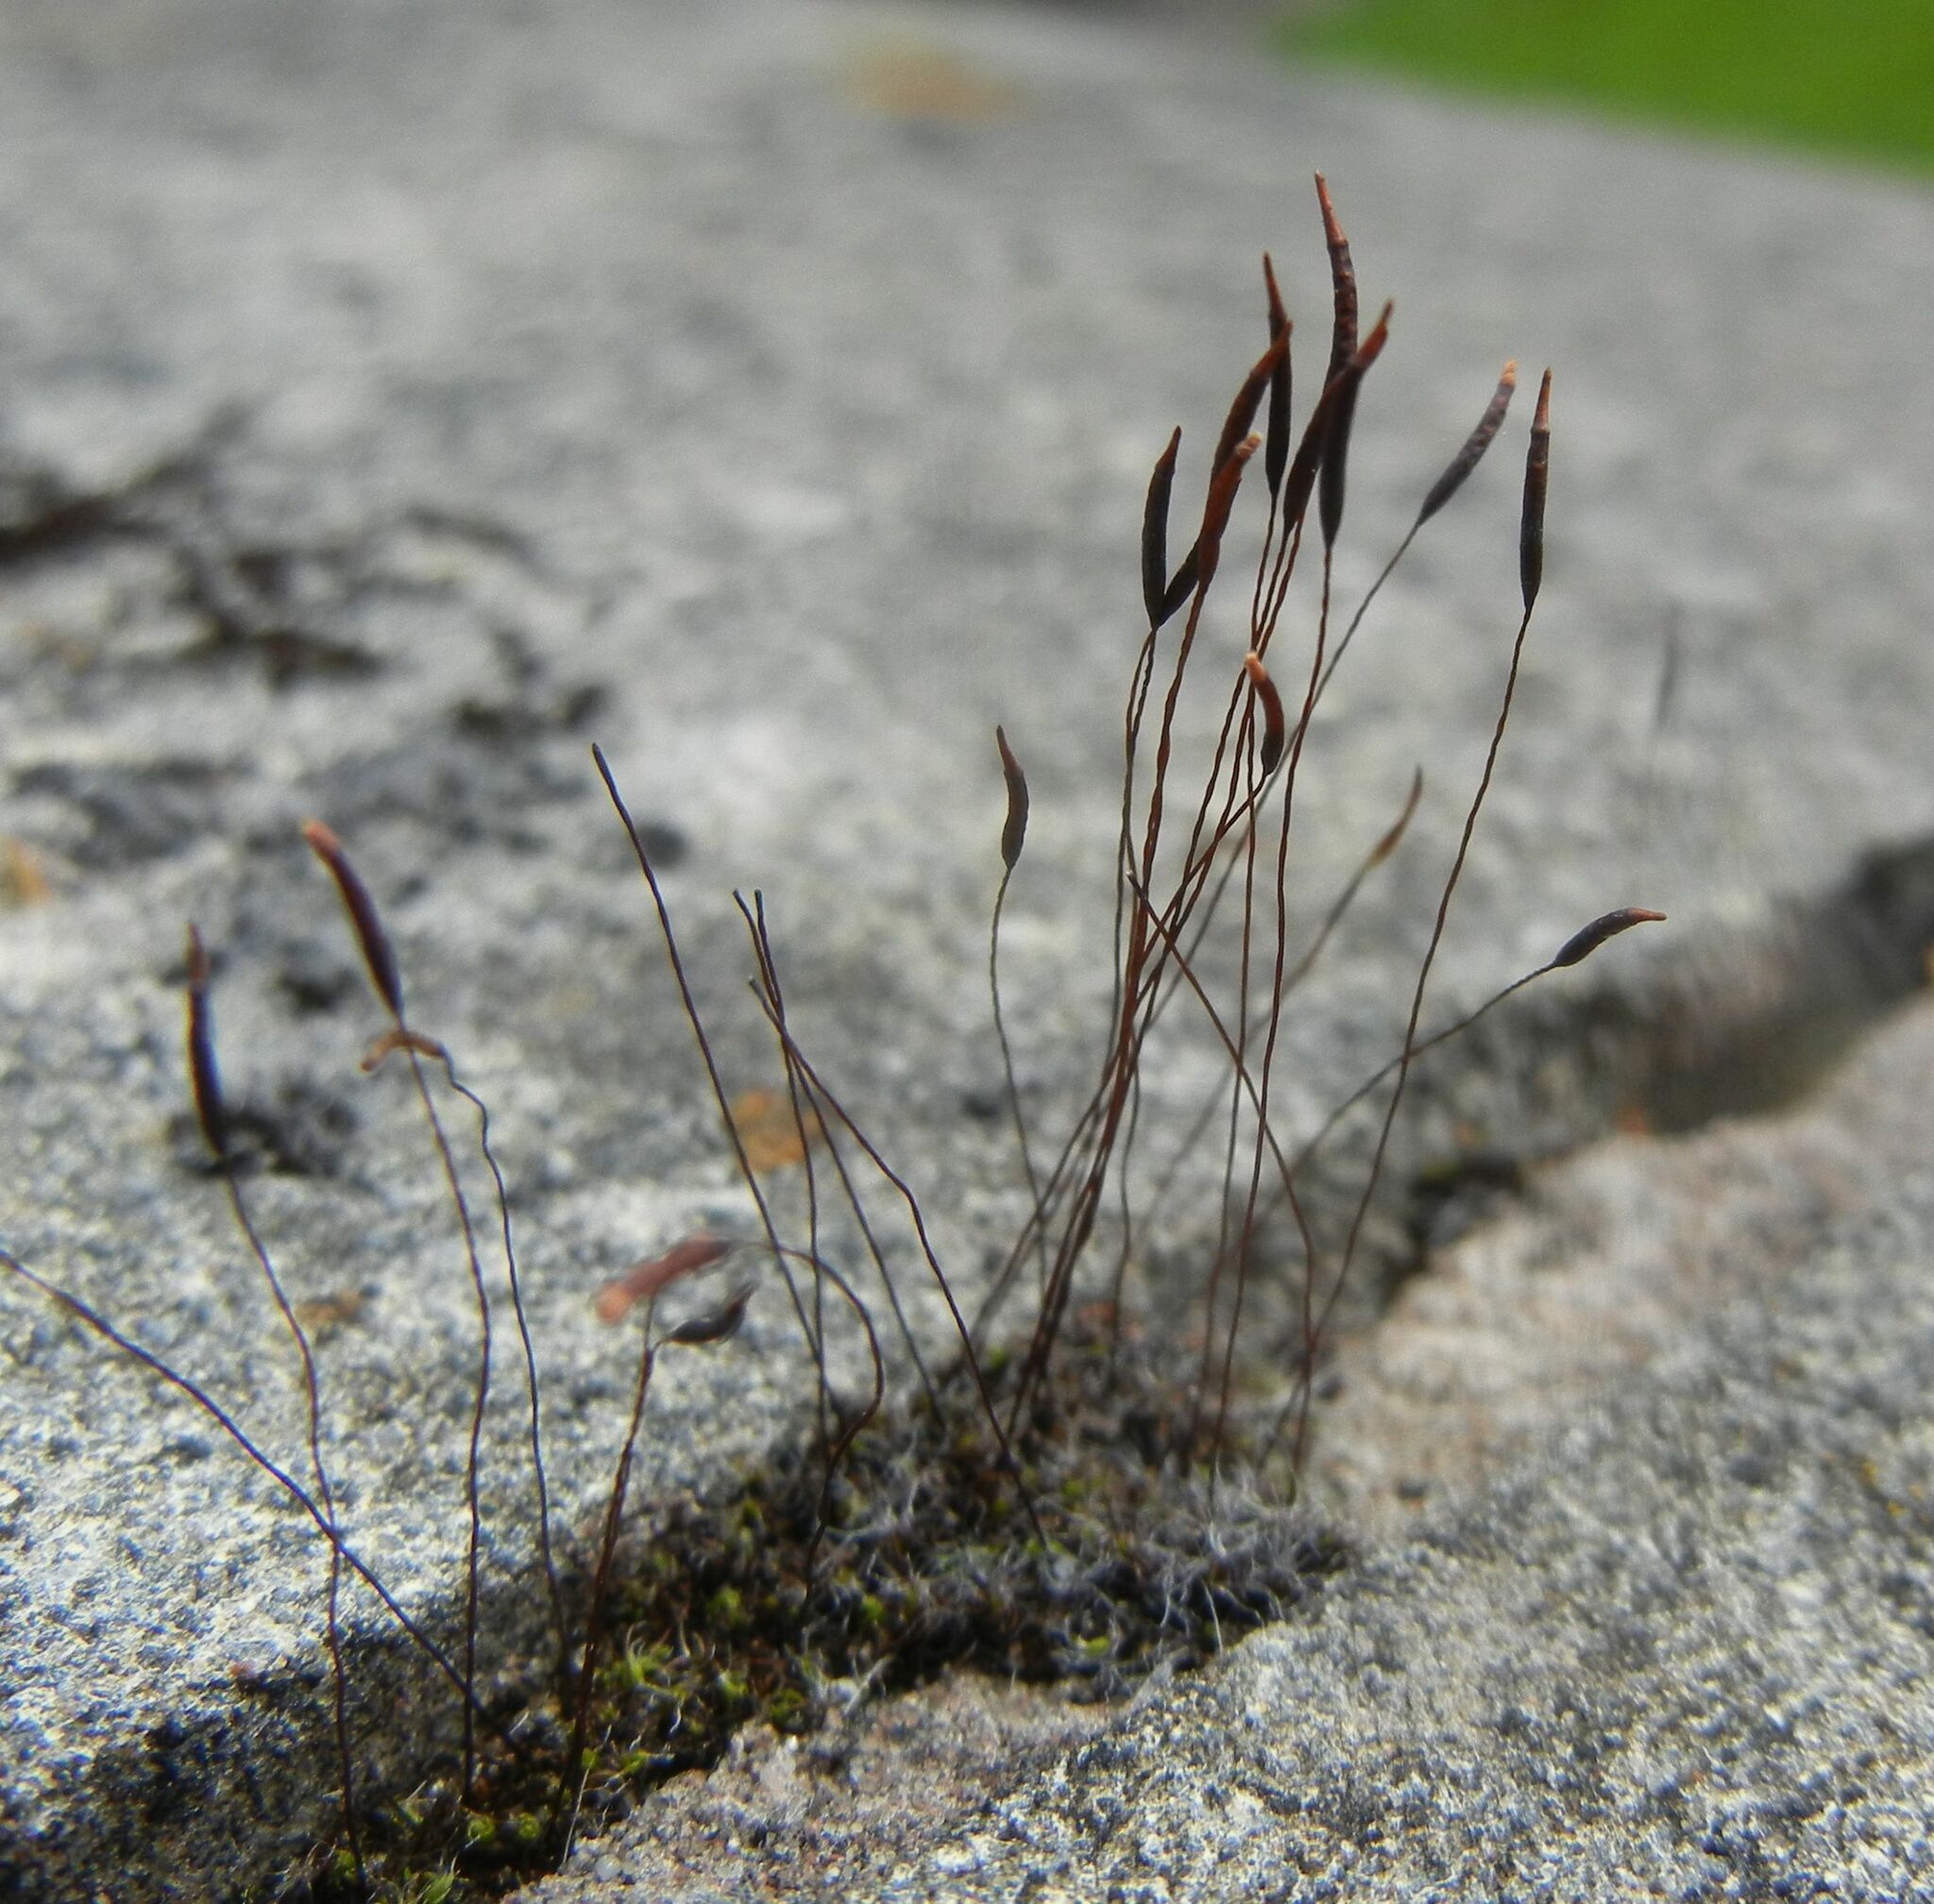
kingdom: Plantae
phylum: Bryophyta
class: Bryopsida
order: Pottiales
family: Pottiaceae
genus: Tortula
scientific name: Tortula muralis
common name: Wall screw-moss
